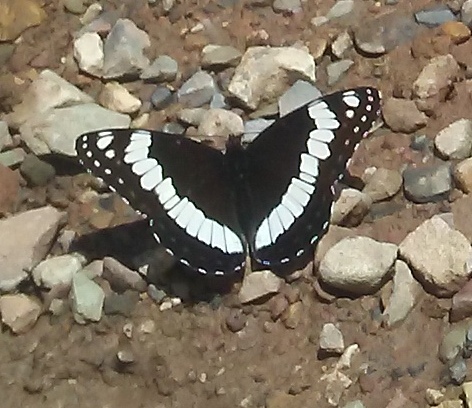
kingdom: Animalia
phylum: Arthropoda
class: Insecta
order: Lepidoptera
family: Nymphalidae
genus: Limenitis
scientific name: Limenitis weidemeyerii
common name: Weidemeyer's admiral
